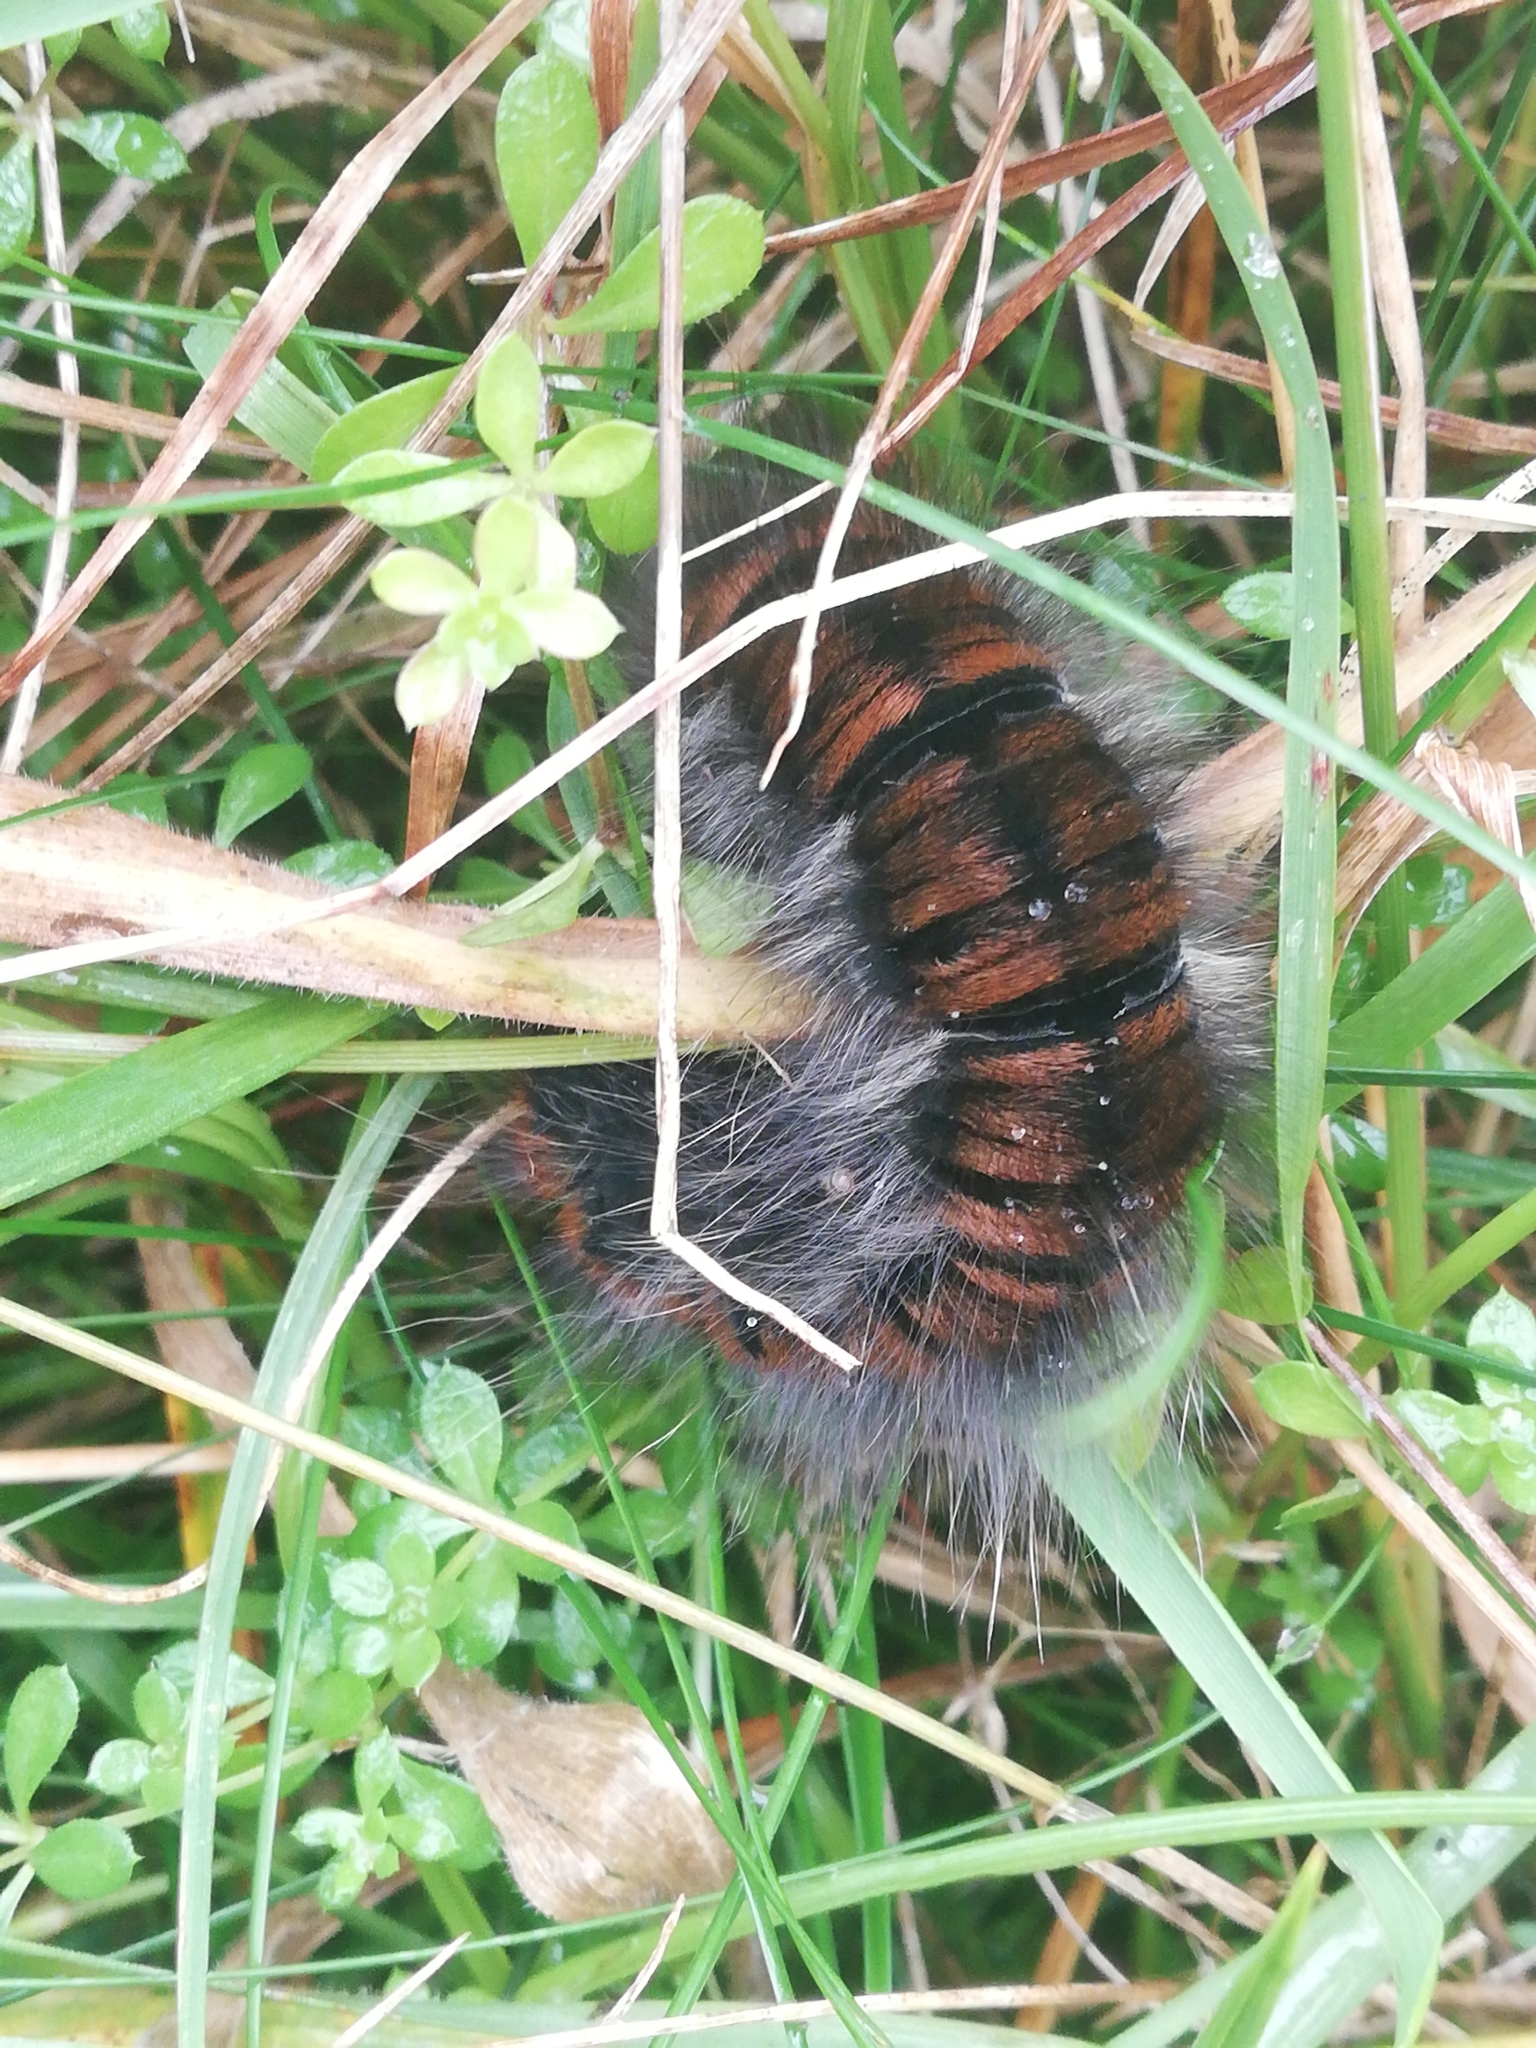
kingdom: Animalia
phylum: Arthropoda
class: Insecta
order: Lepidoptera
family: Lasiocampidae
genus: Macrothylacia
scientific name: Macrothylacia rubi
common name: Fox moth
